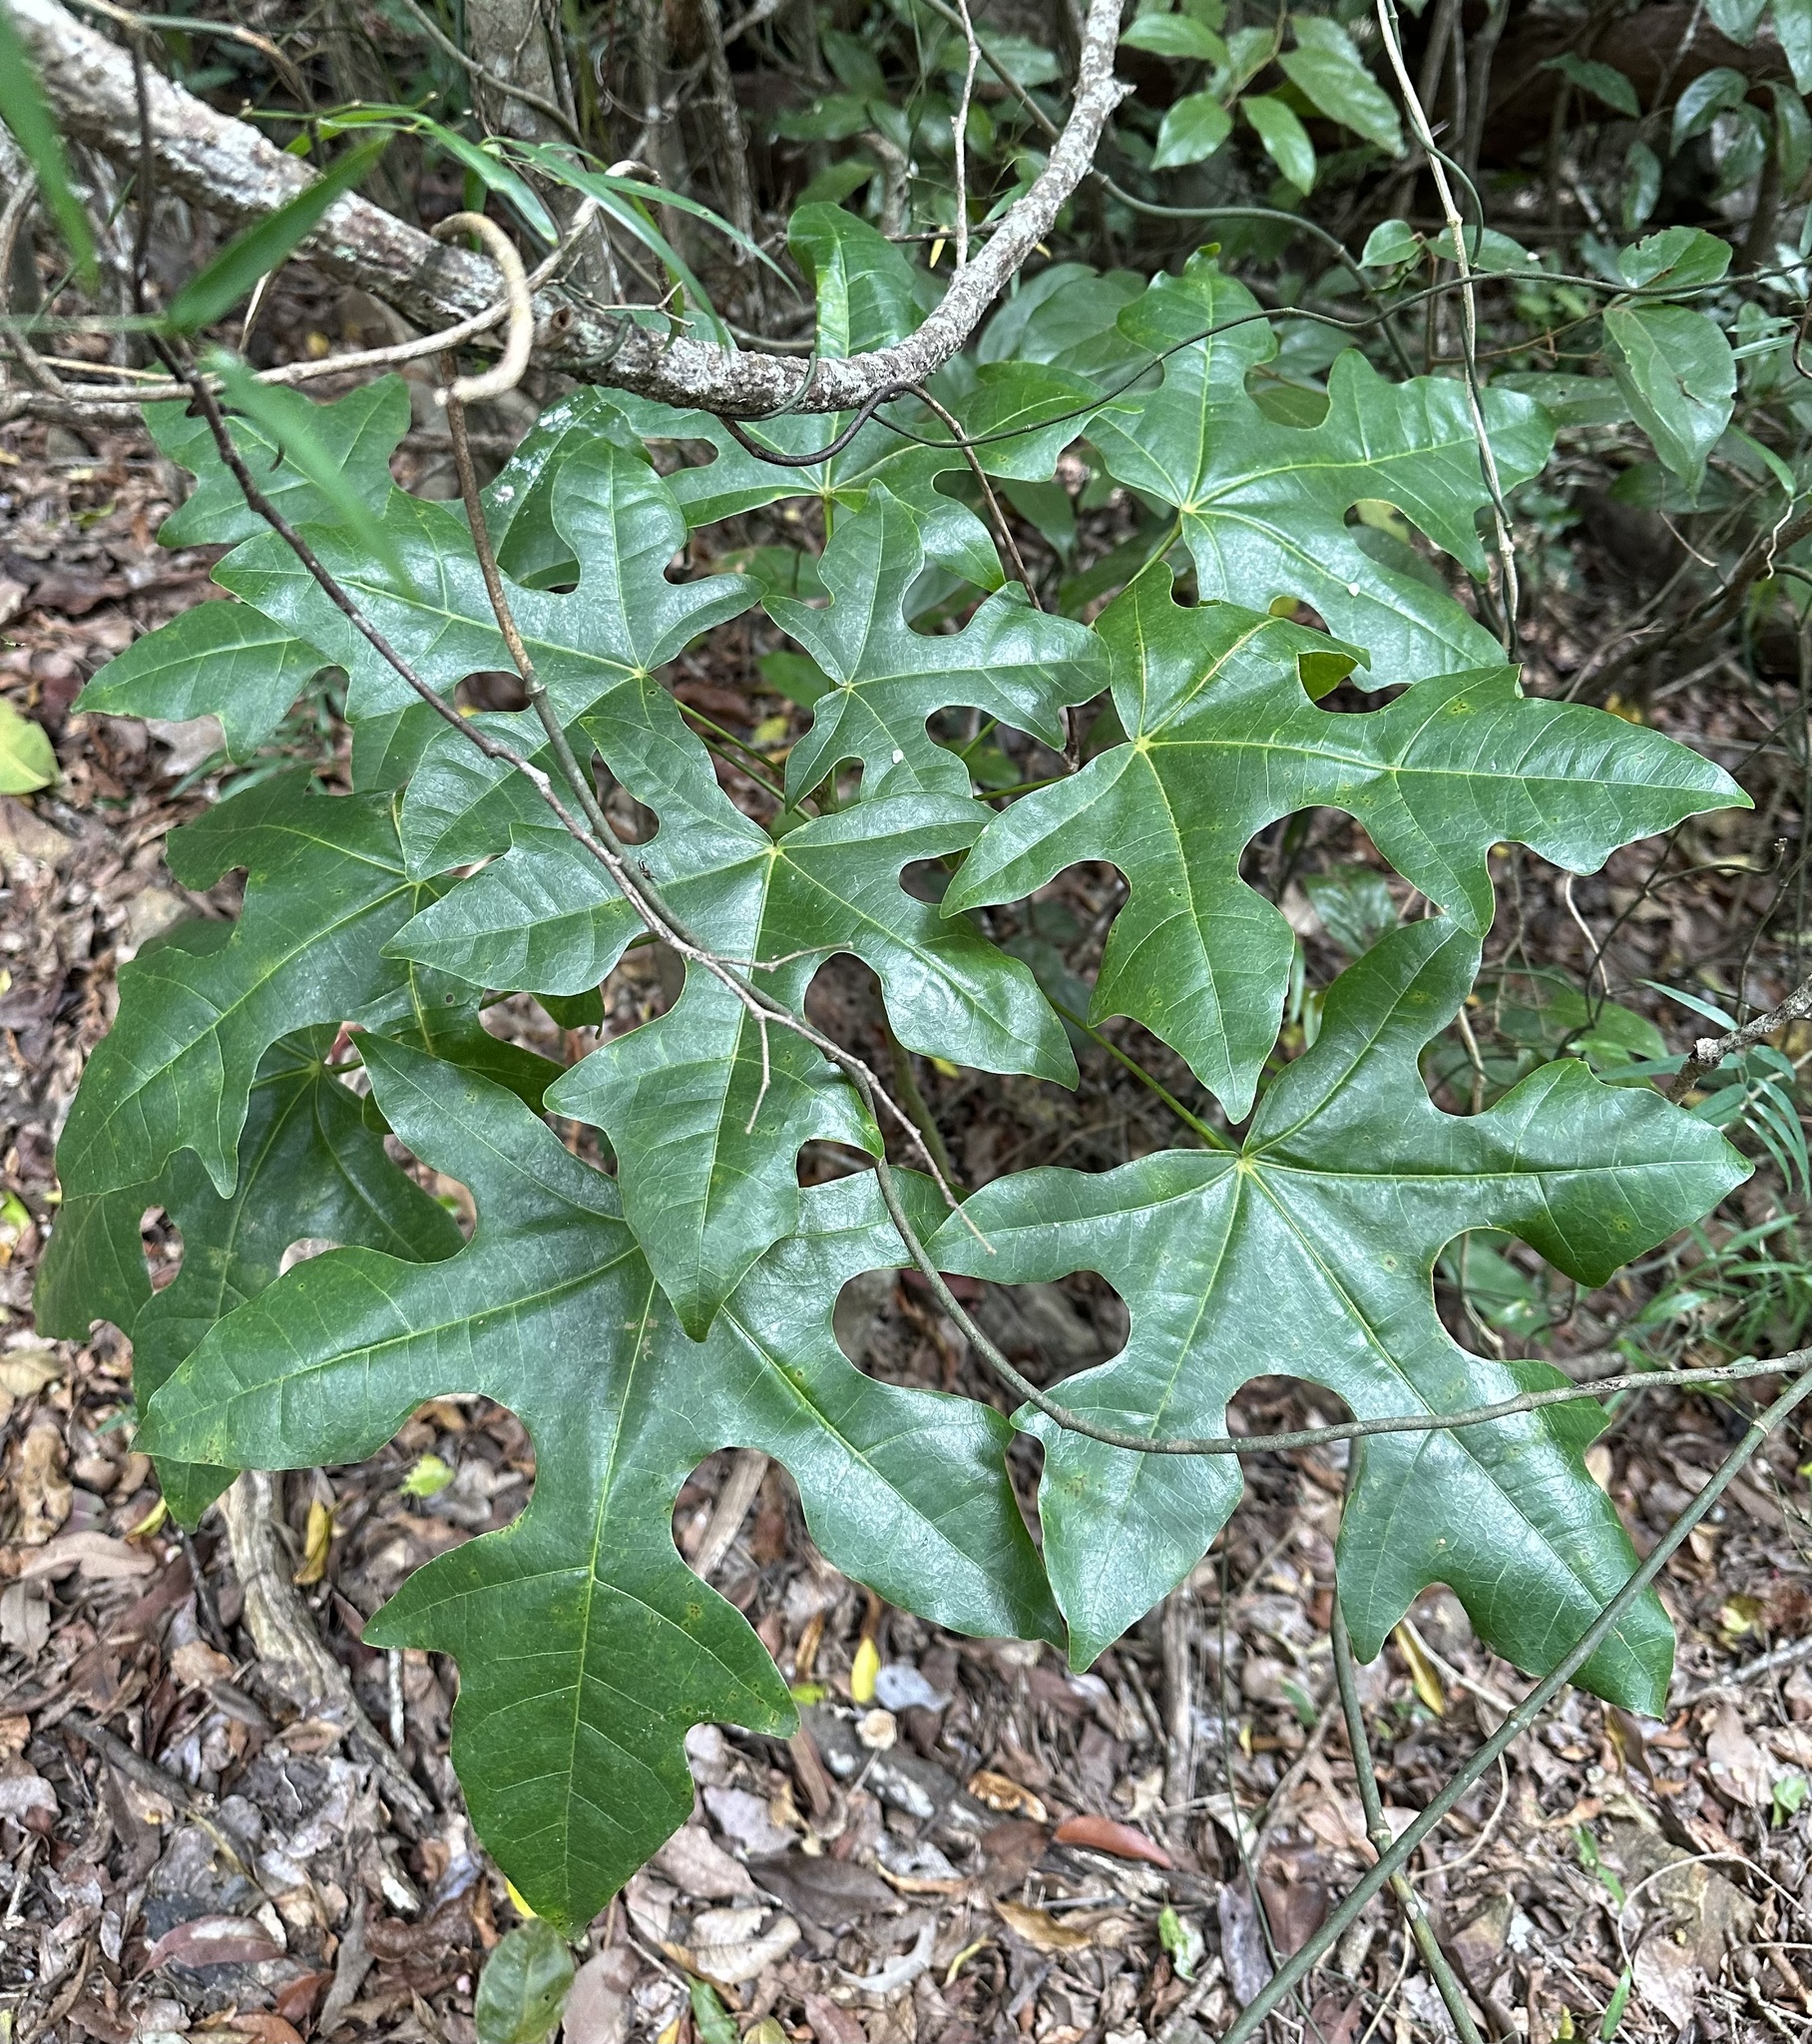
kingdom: Plantae
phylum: Tracheophyta
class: Magnoliopsida
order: Malvales
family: Malvaceae
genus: Brachychiton
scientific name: Brachychiton acerifolius
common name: Illawarra flame tree
